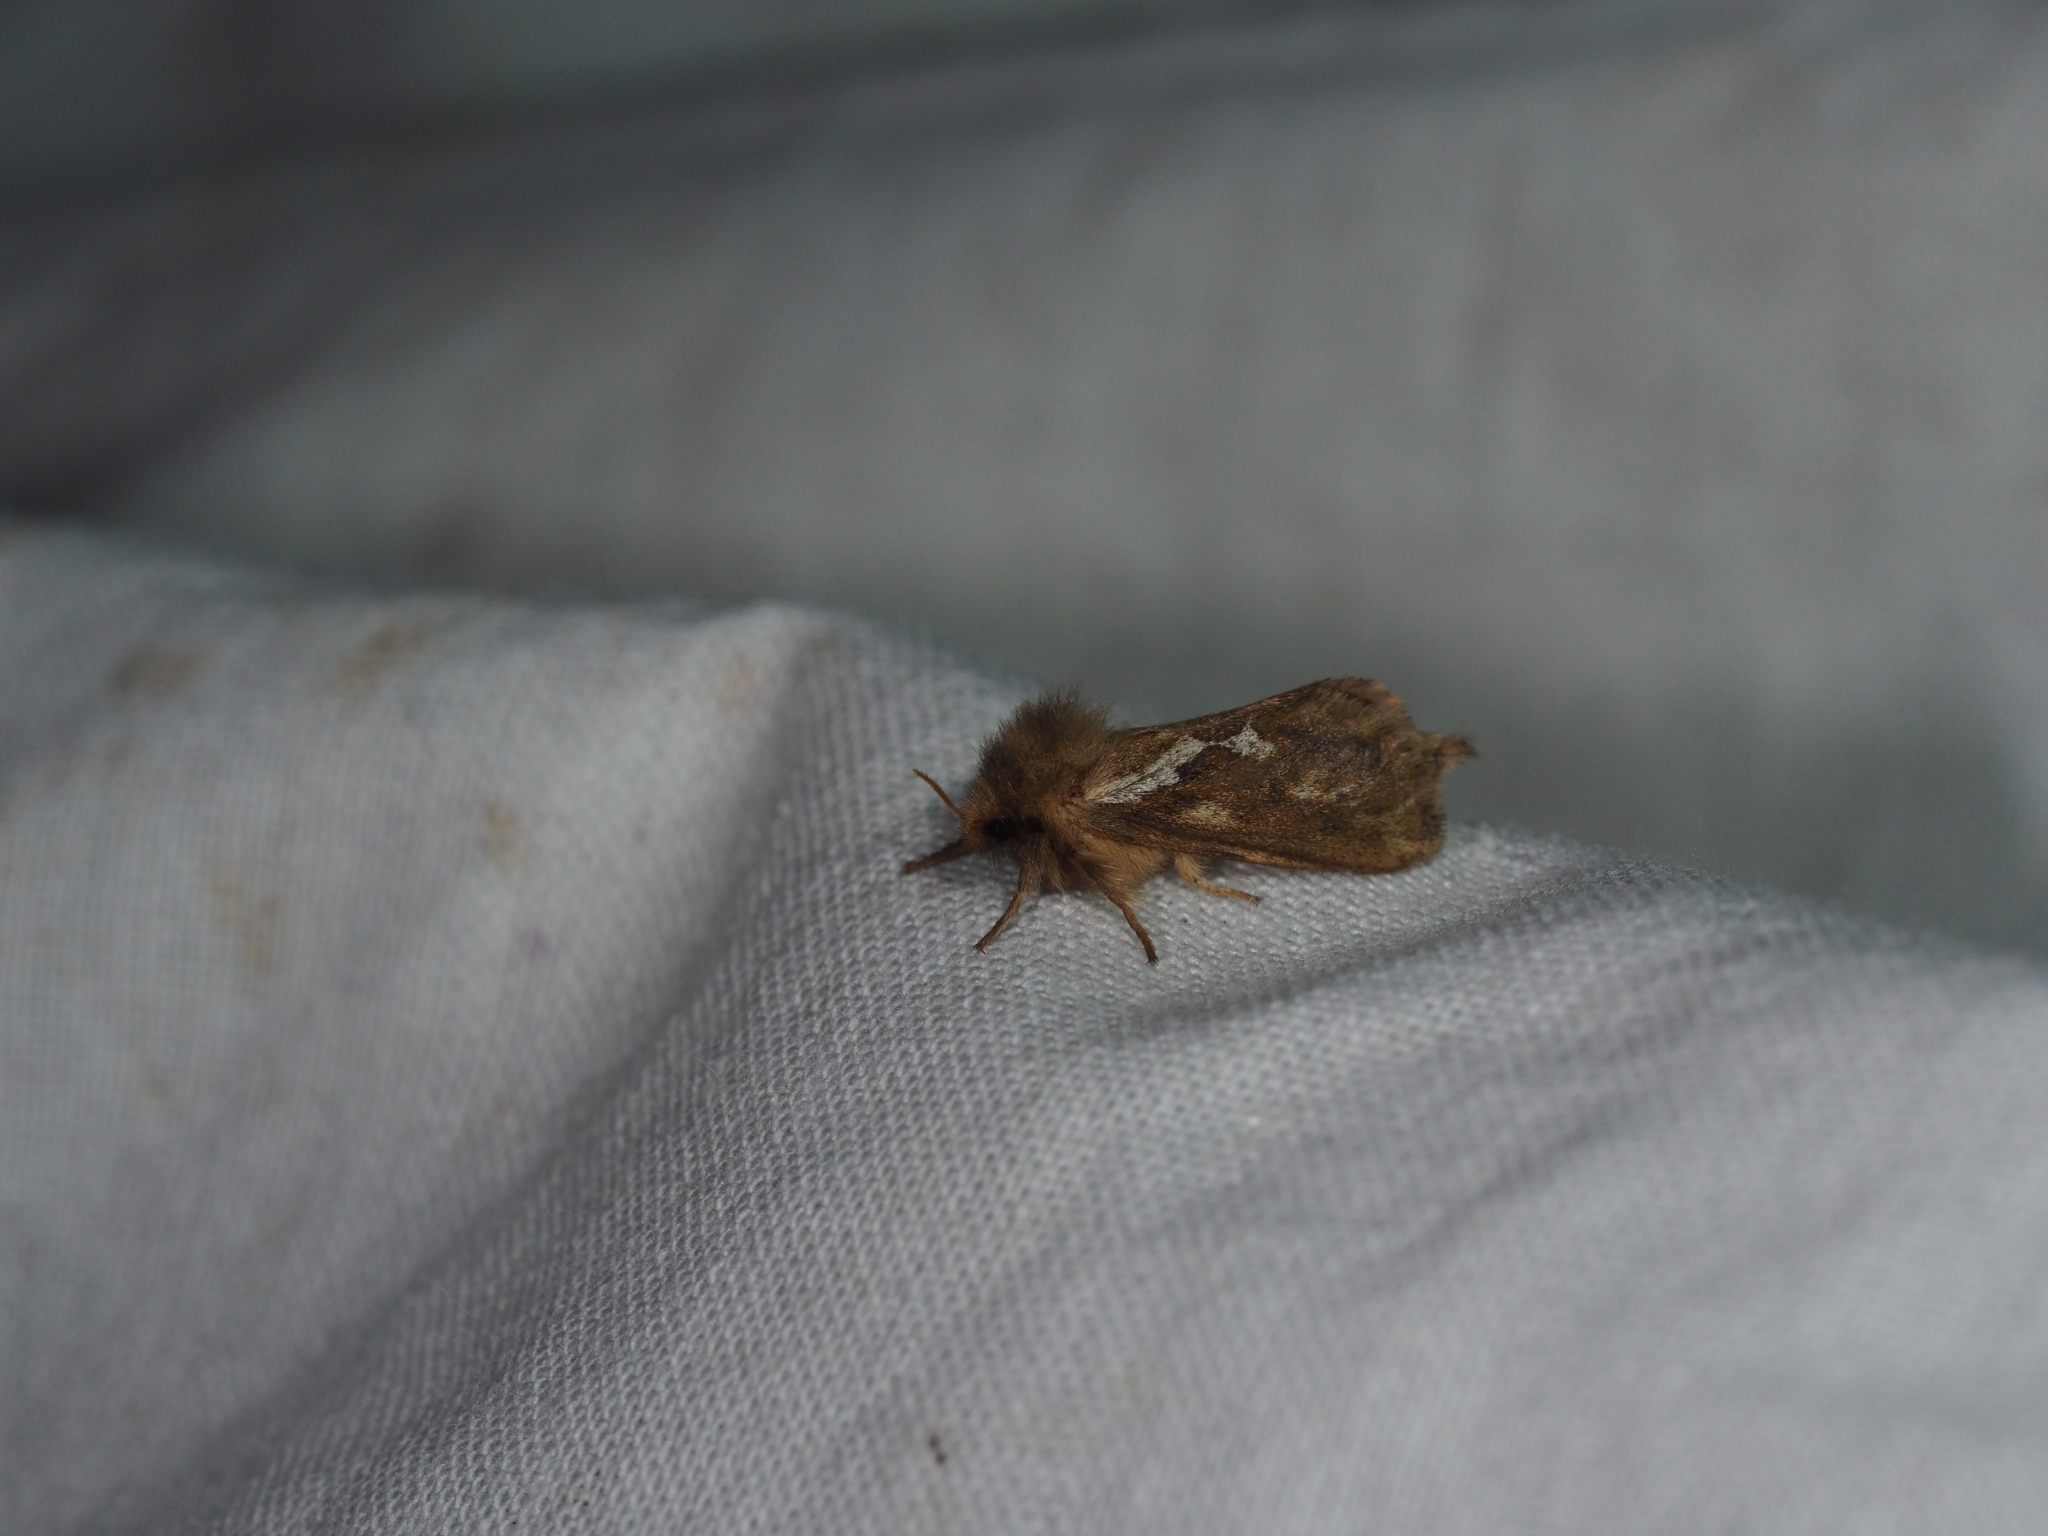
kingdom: Animalia
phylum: Arthropoda
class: Insecta
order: Lepidoptera
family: Hepialidae
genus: Korscheltellus
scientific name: Korscheltellus lupulina
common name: Common swift
